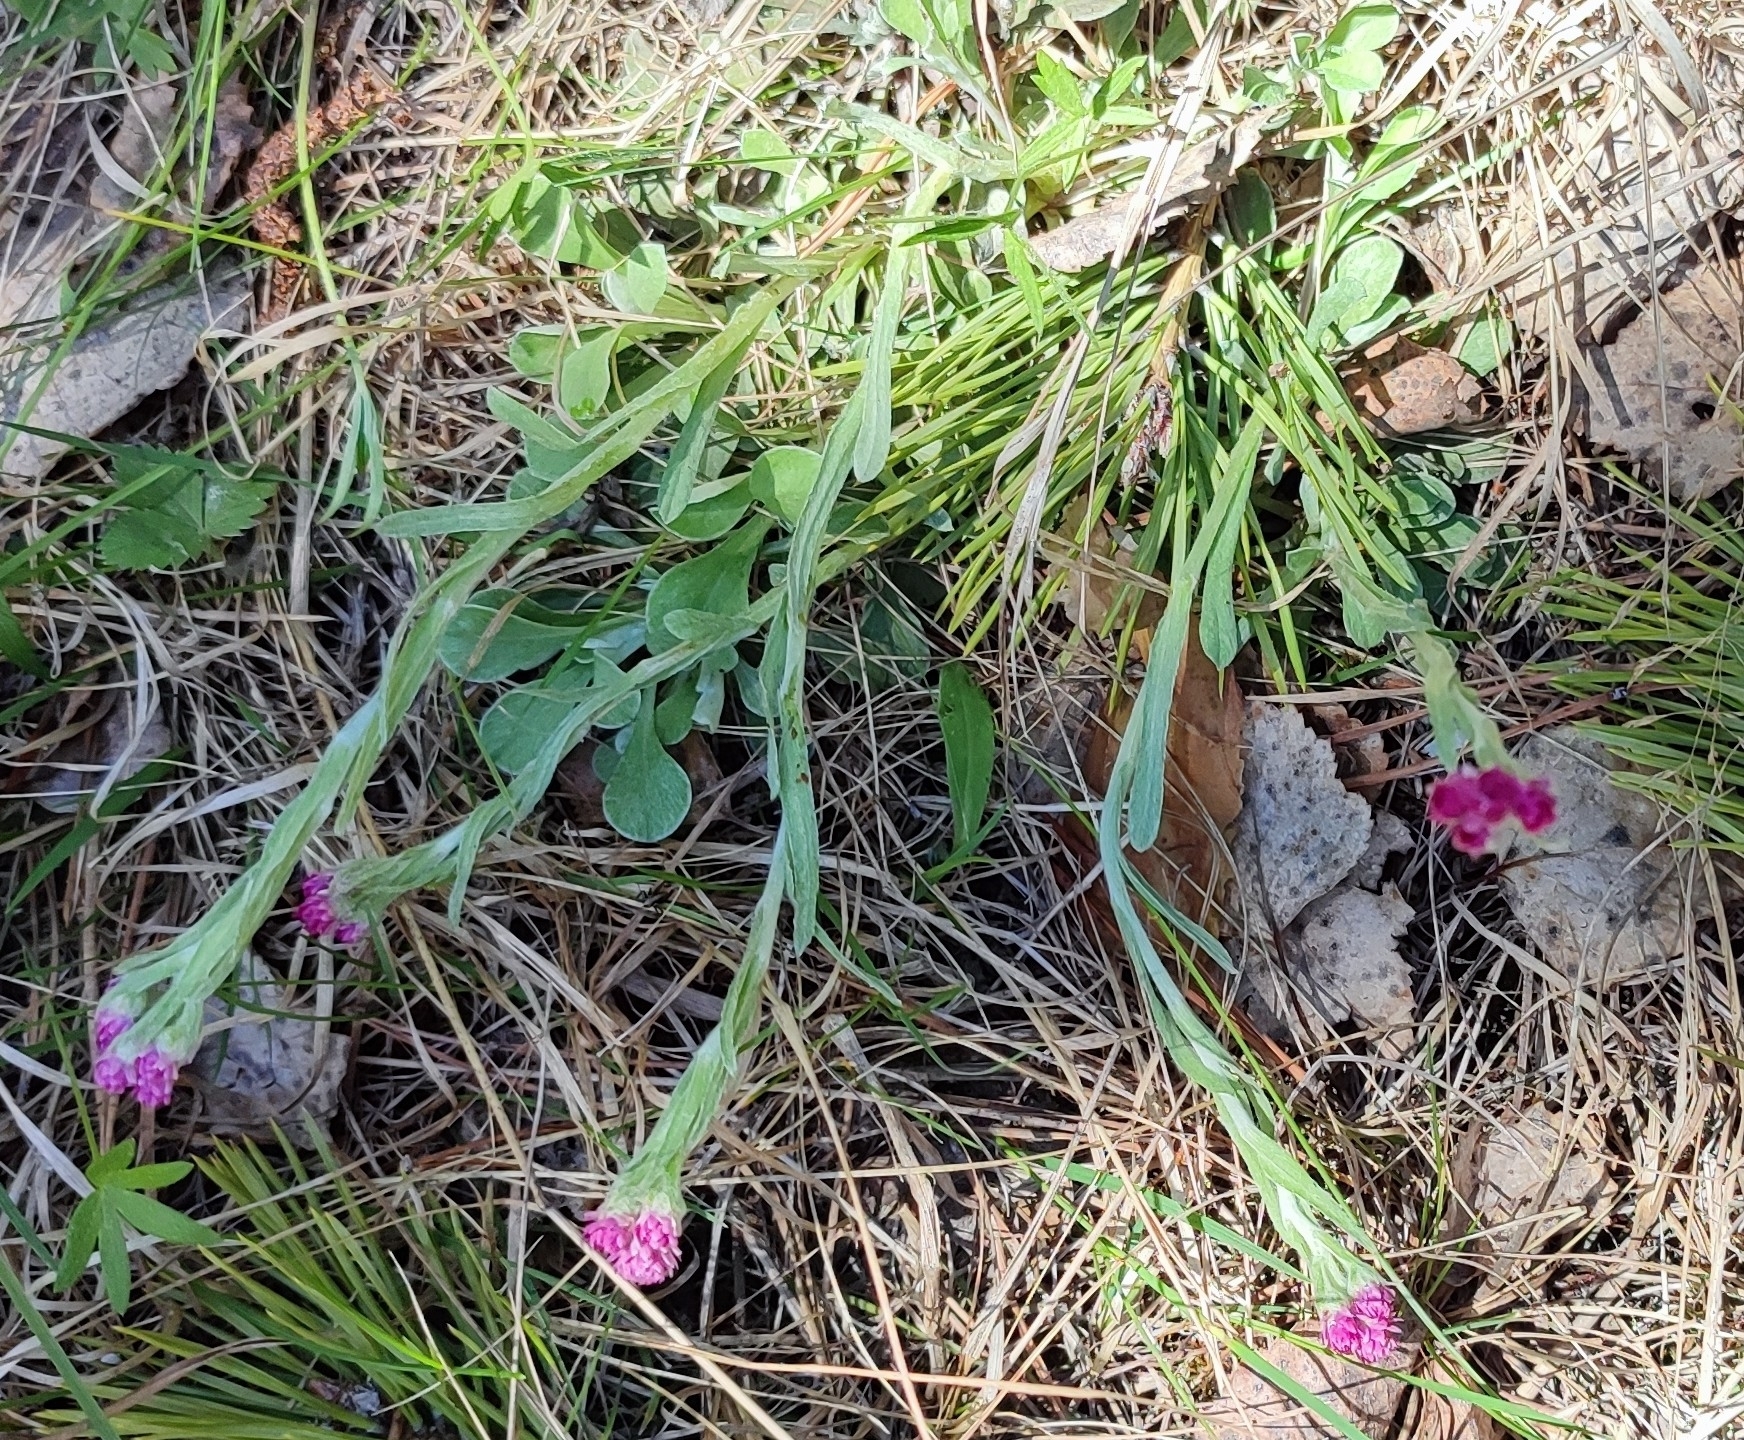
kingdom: Plantae
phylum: Tracheophyta
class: Magnoliopsida
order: Asterales
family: Asteraceae
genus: Antennaria
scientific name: Antennaria dioica
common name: Mountain everlasting
